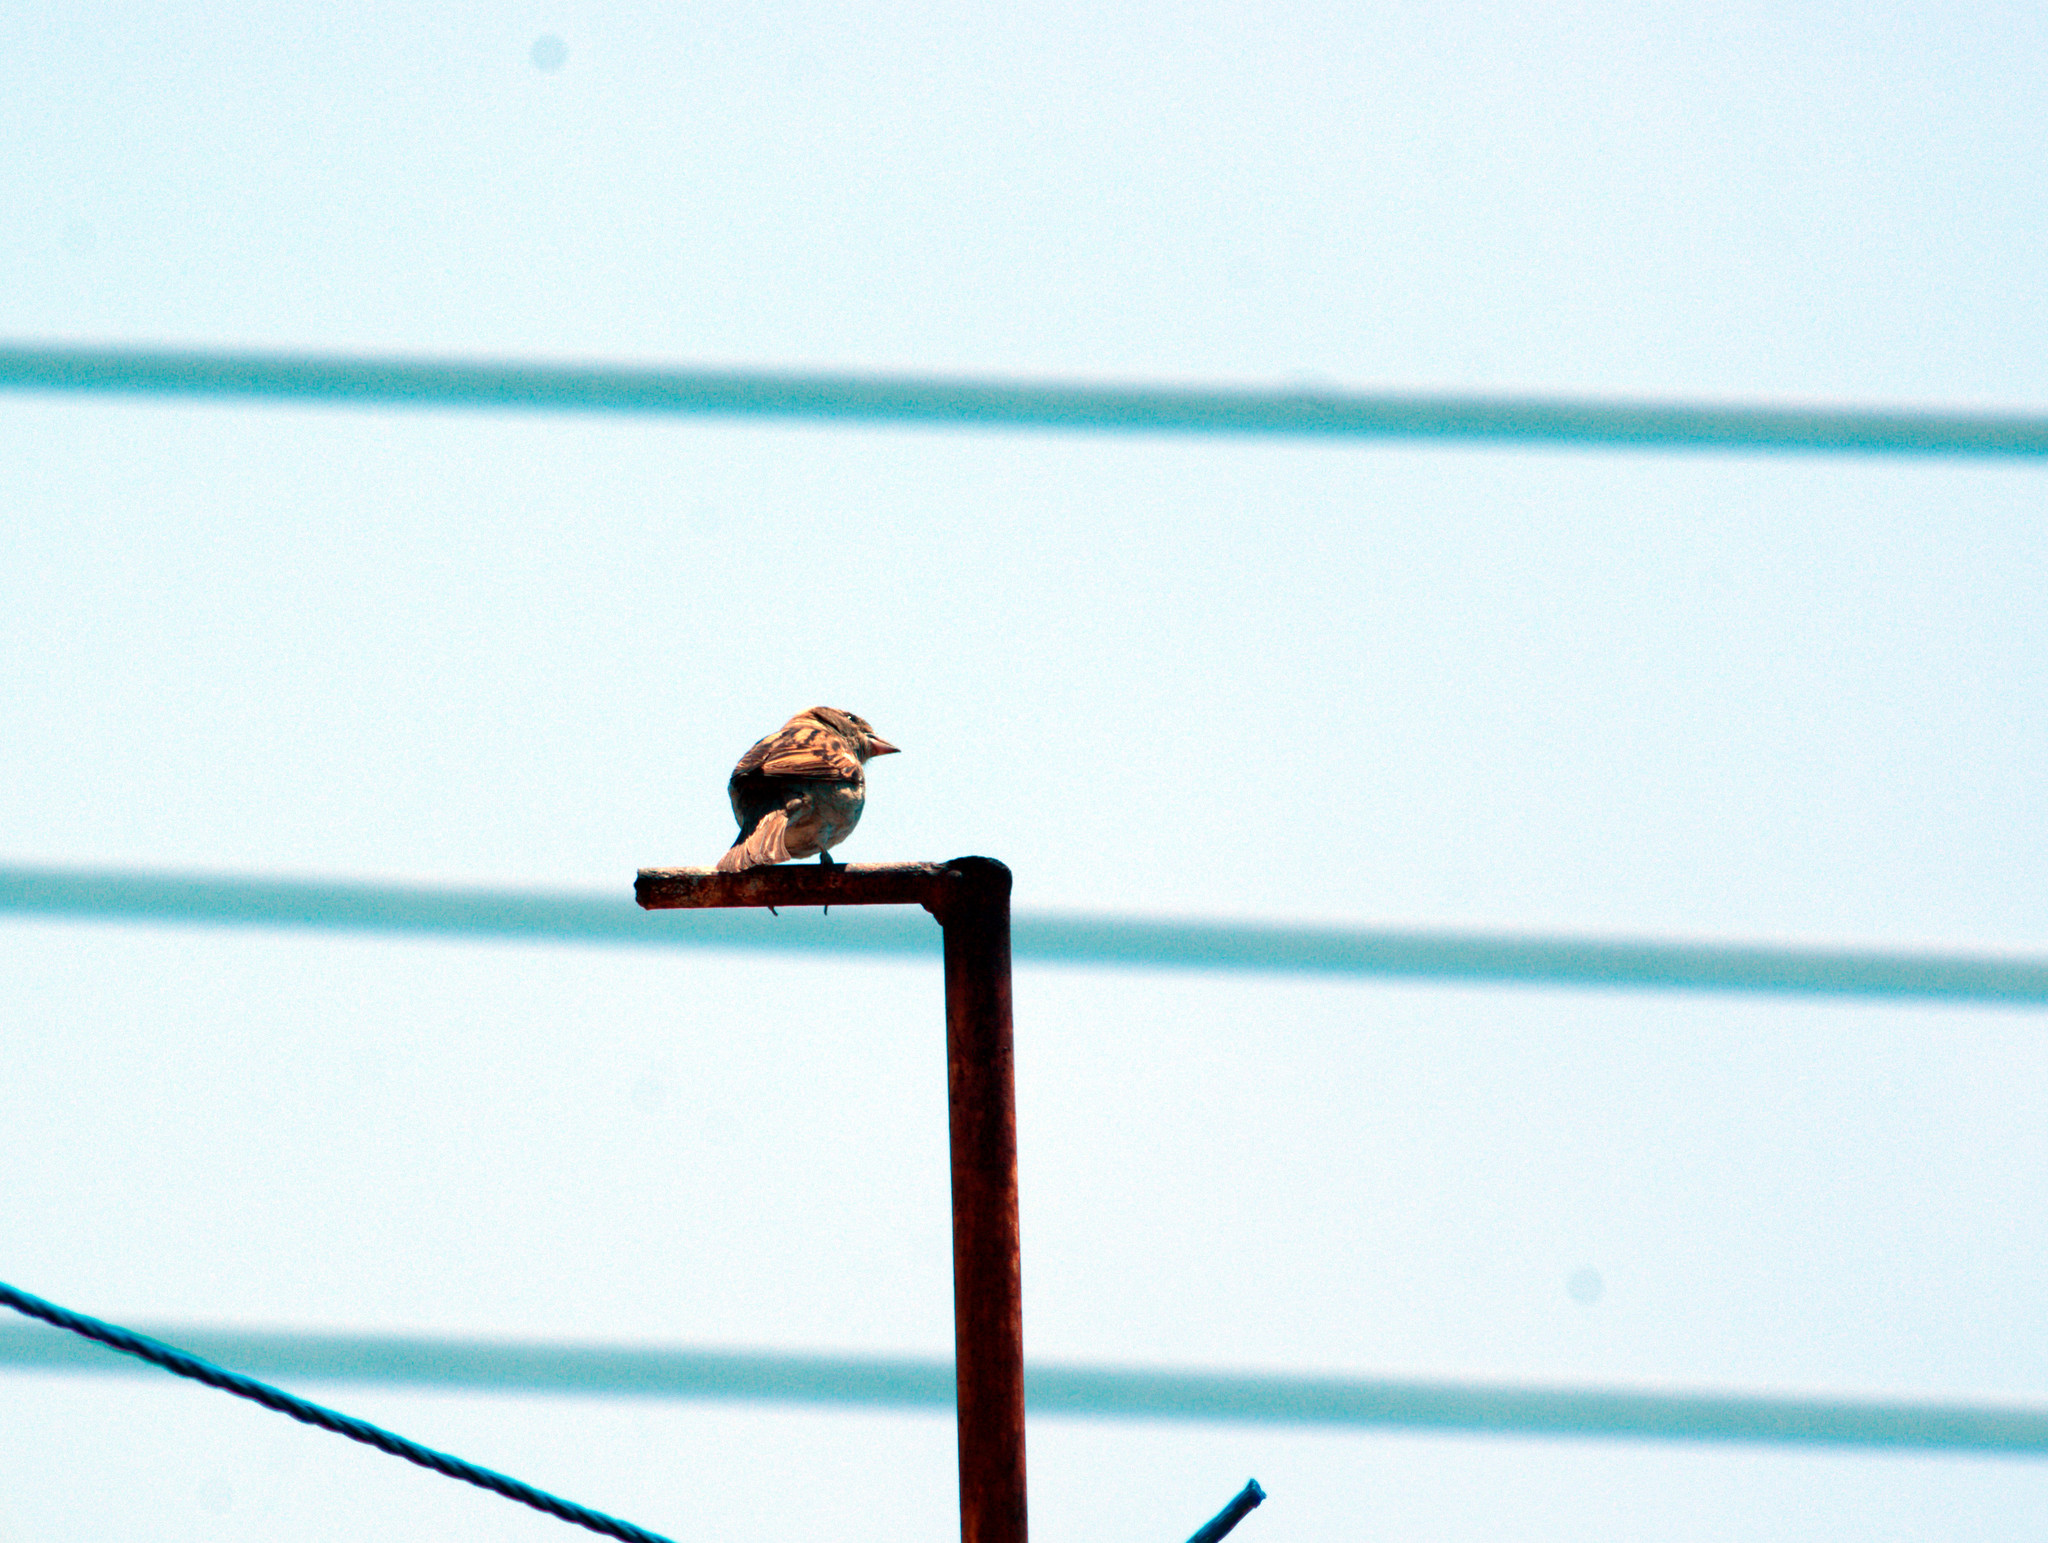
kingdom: Animalia
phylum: Chordata
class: Aves
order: Passeriformes
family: Passeridae
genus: Passer
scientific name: Passer domesticus
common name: House sparrow
